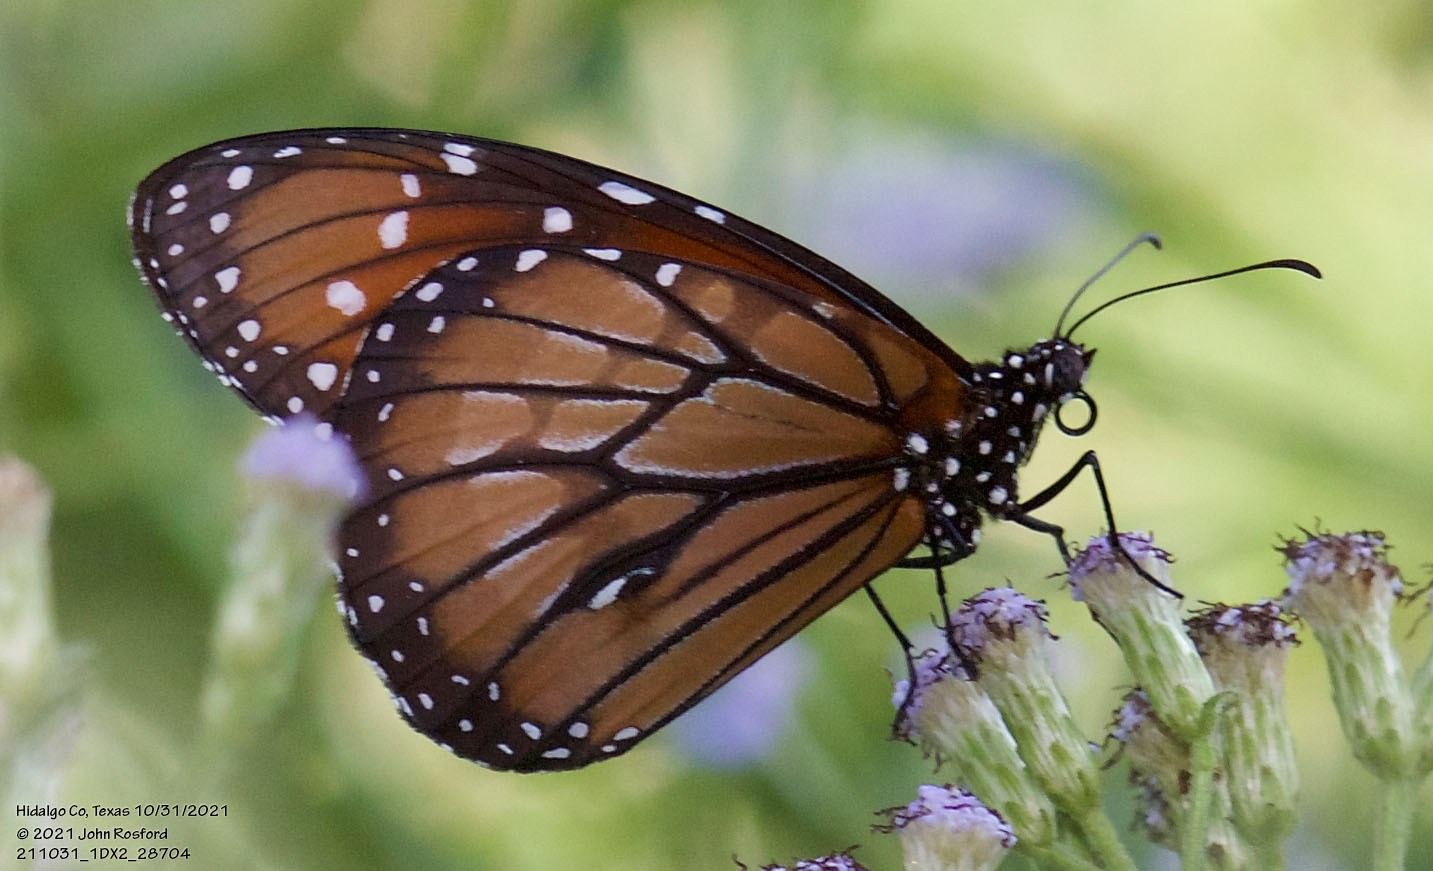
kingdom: Animalia
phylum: Arthropoda
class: Insecta
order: Lepidoptera
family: Nymphalidae
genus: Danaus
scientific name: Danaus eresimus
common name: Soldier
